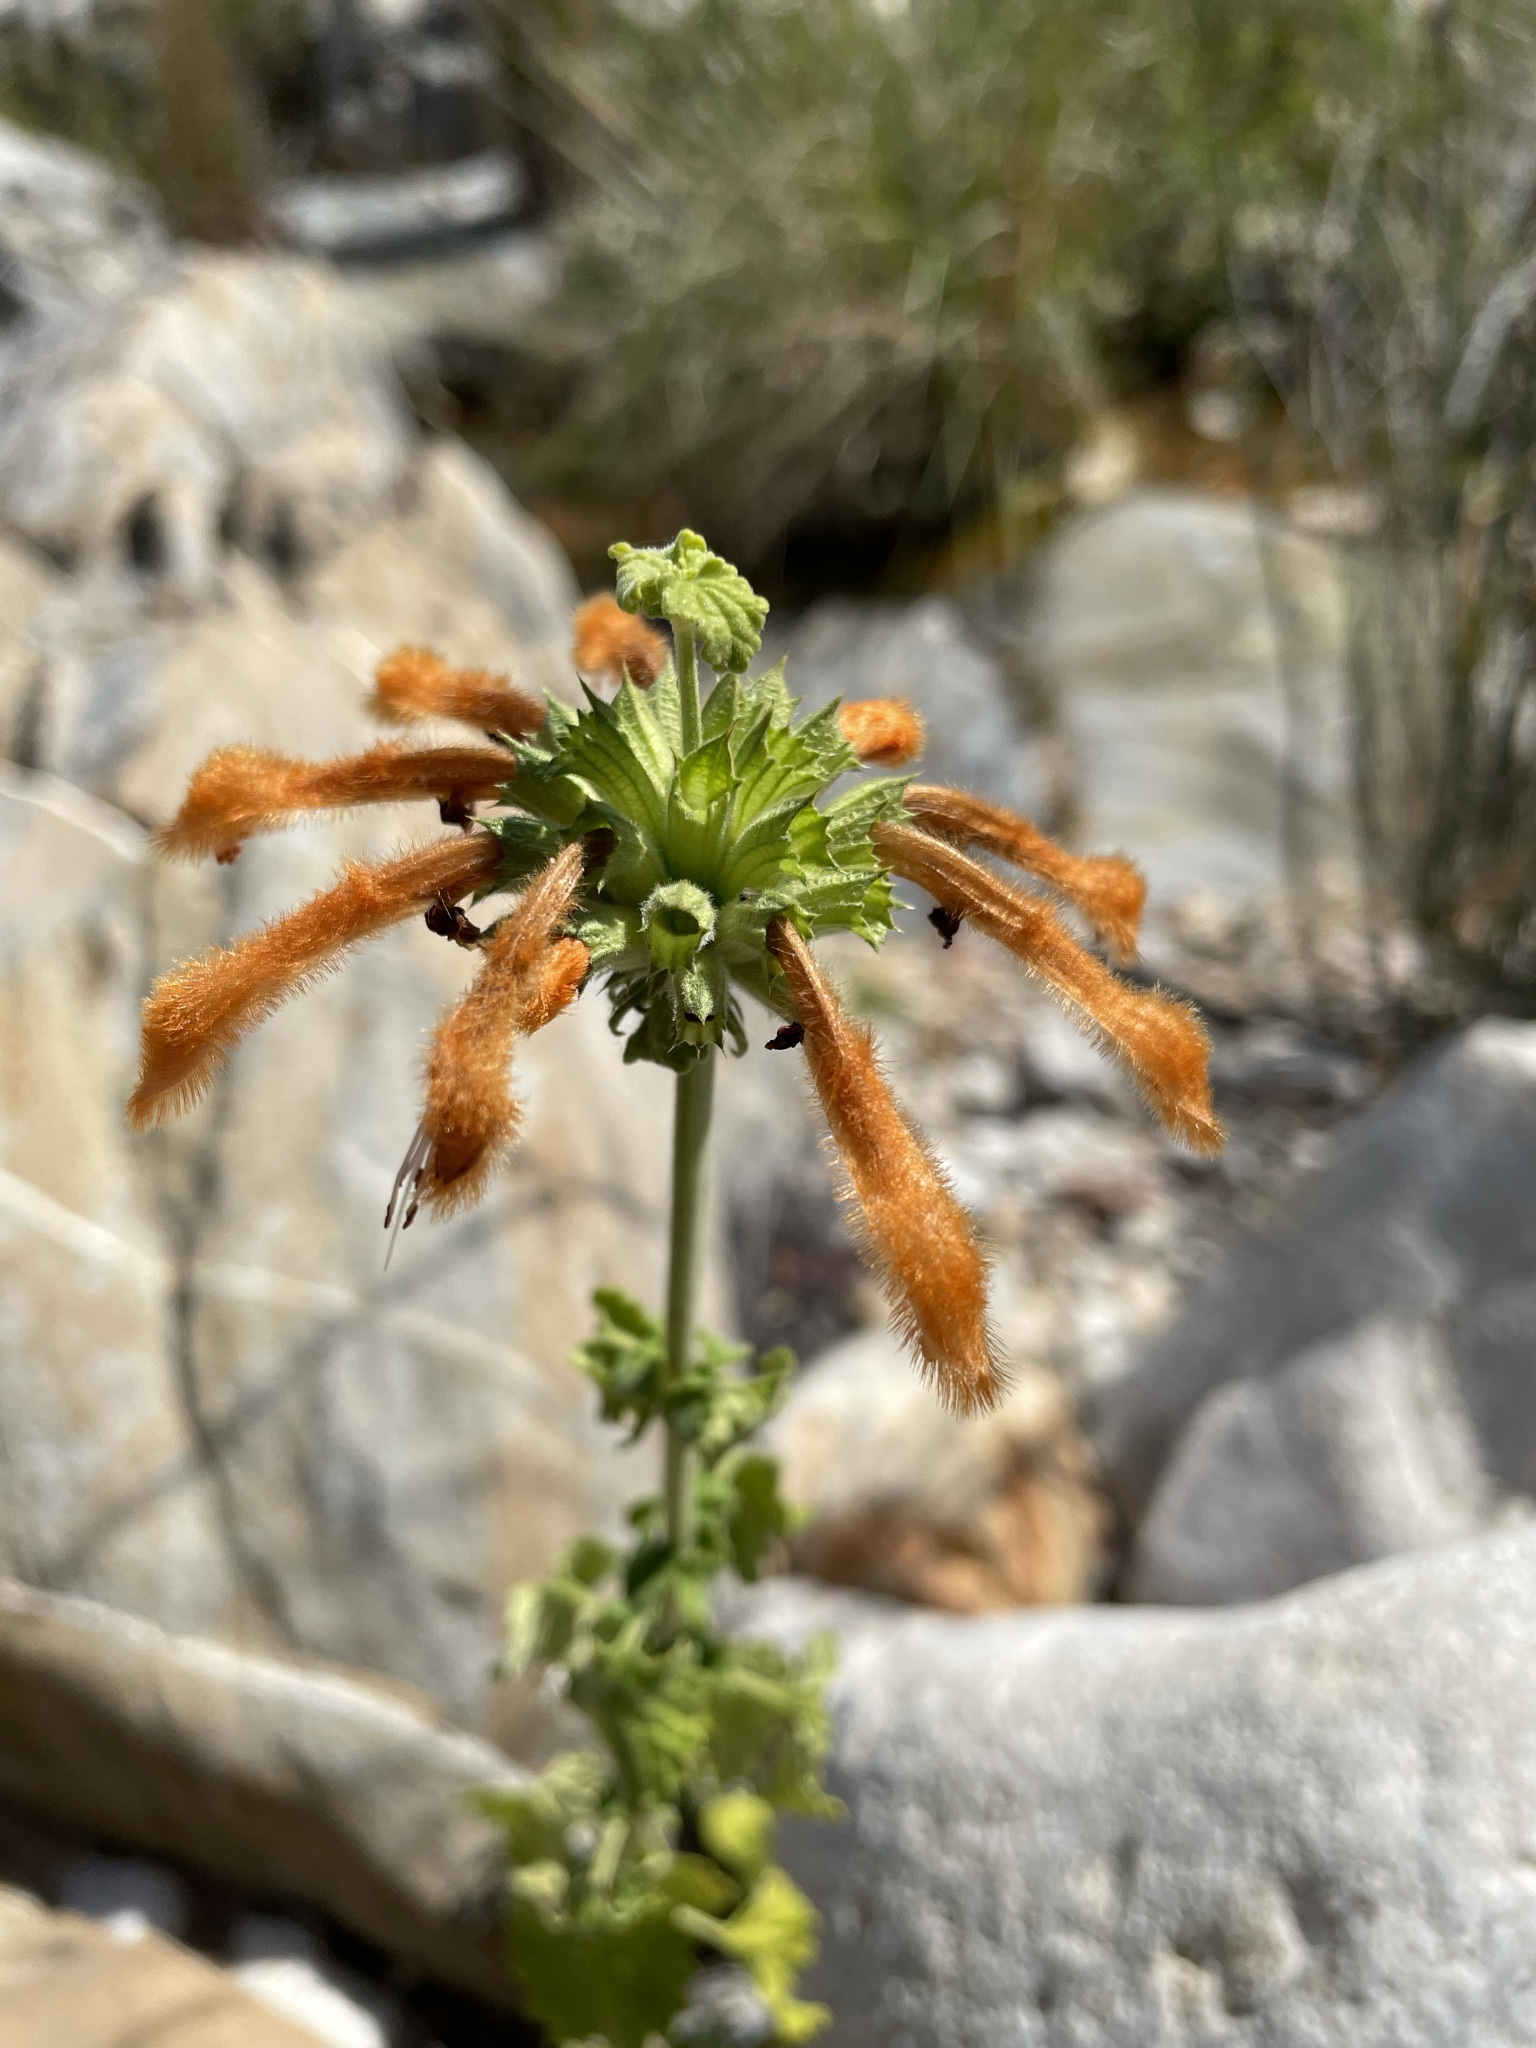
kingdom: Plantae
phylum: Tracheophyta
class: Magnoliopsida
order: Lamiales
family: Lamiaceae
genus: Leonotis
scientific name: Leonotis ocymifolia
